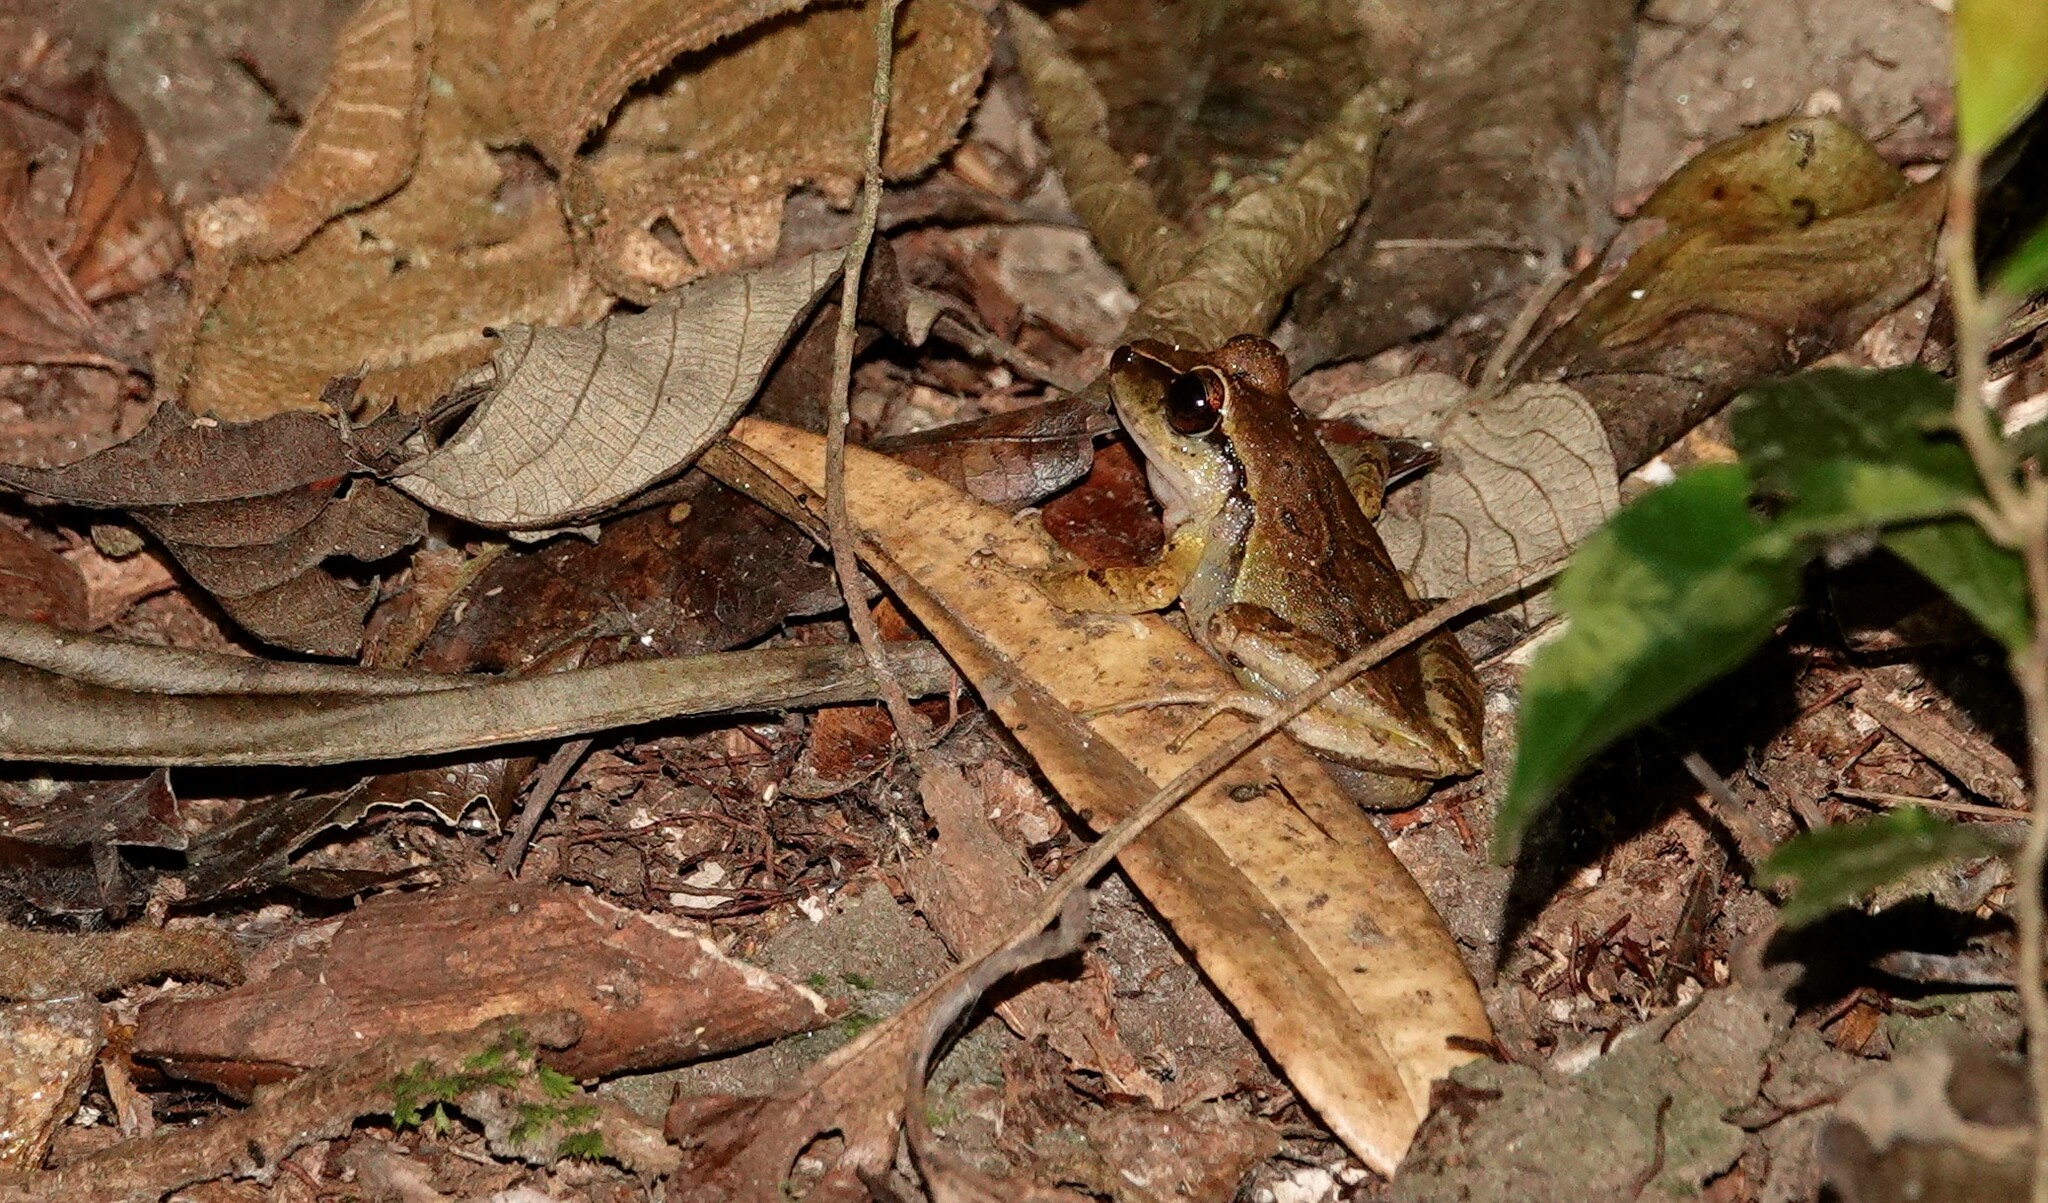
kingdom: Animalia
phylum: Chordata
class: Amphibia
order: Anura
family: Craugastoridae
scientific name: Craugastoridae
